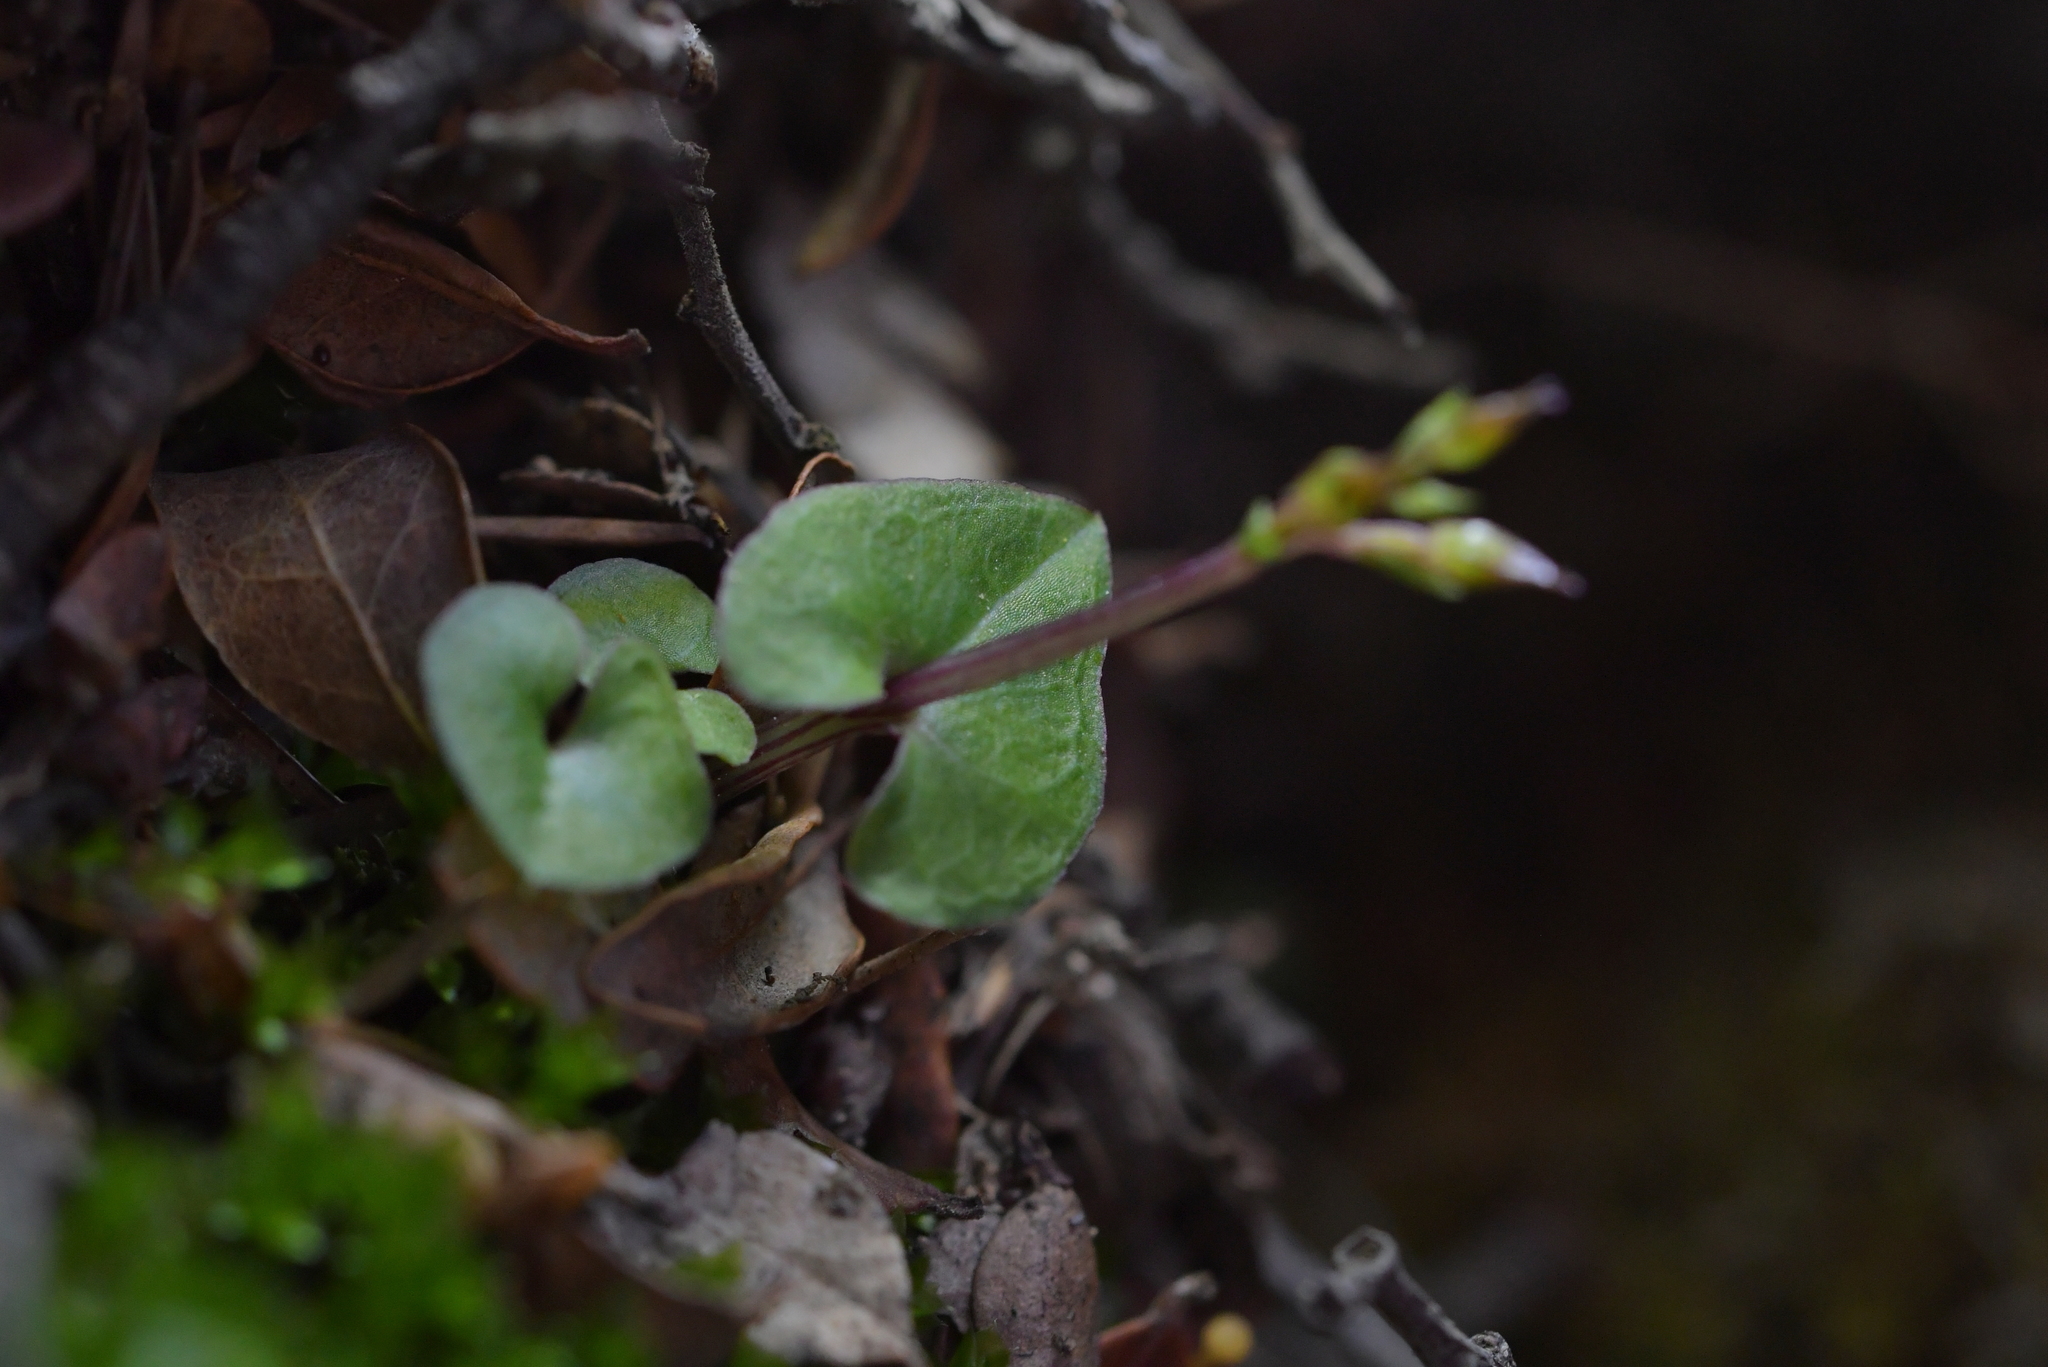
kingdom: Plantae
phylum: Tracheophyta
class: Liliopsida
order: Asparagales
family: Orchidaceae
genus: Acianthus
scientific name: Acianthus sinclairii
